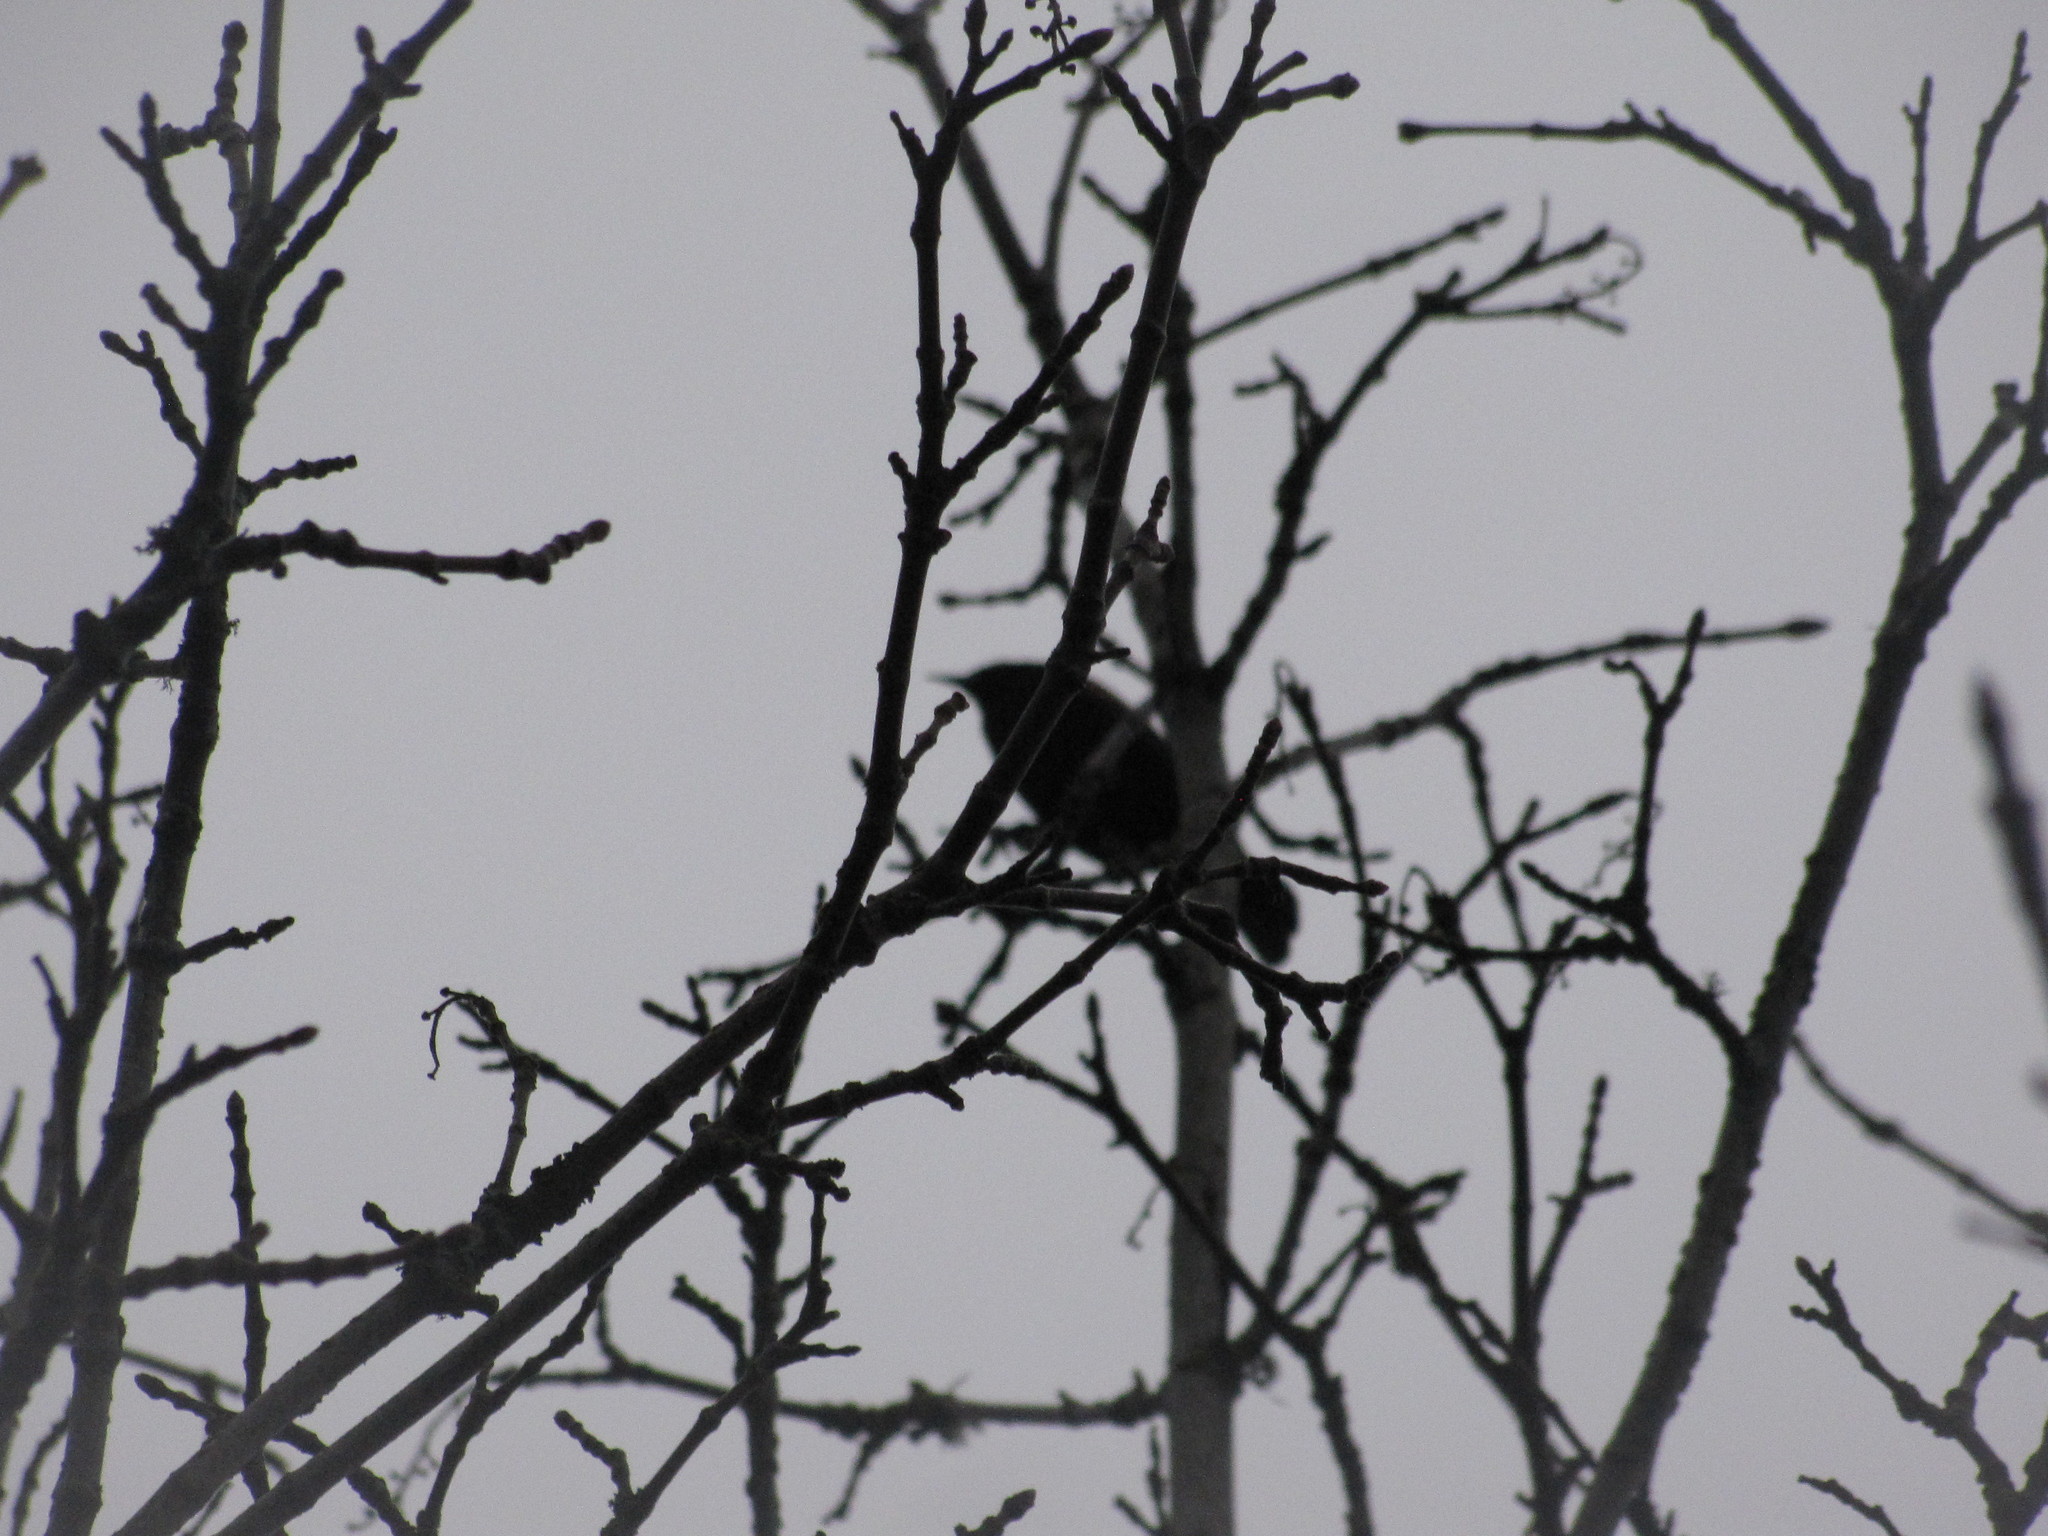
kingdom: Animalia
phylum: Chordata
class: Aves
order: Passeriformes
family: Icteridae
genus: Agelaius
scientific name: Agelaius phoeniceus
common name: Red-winged blackbird
